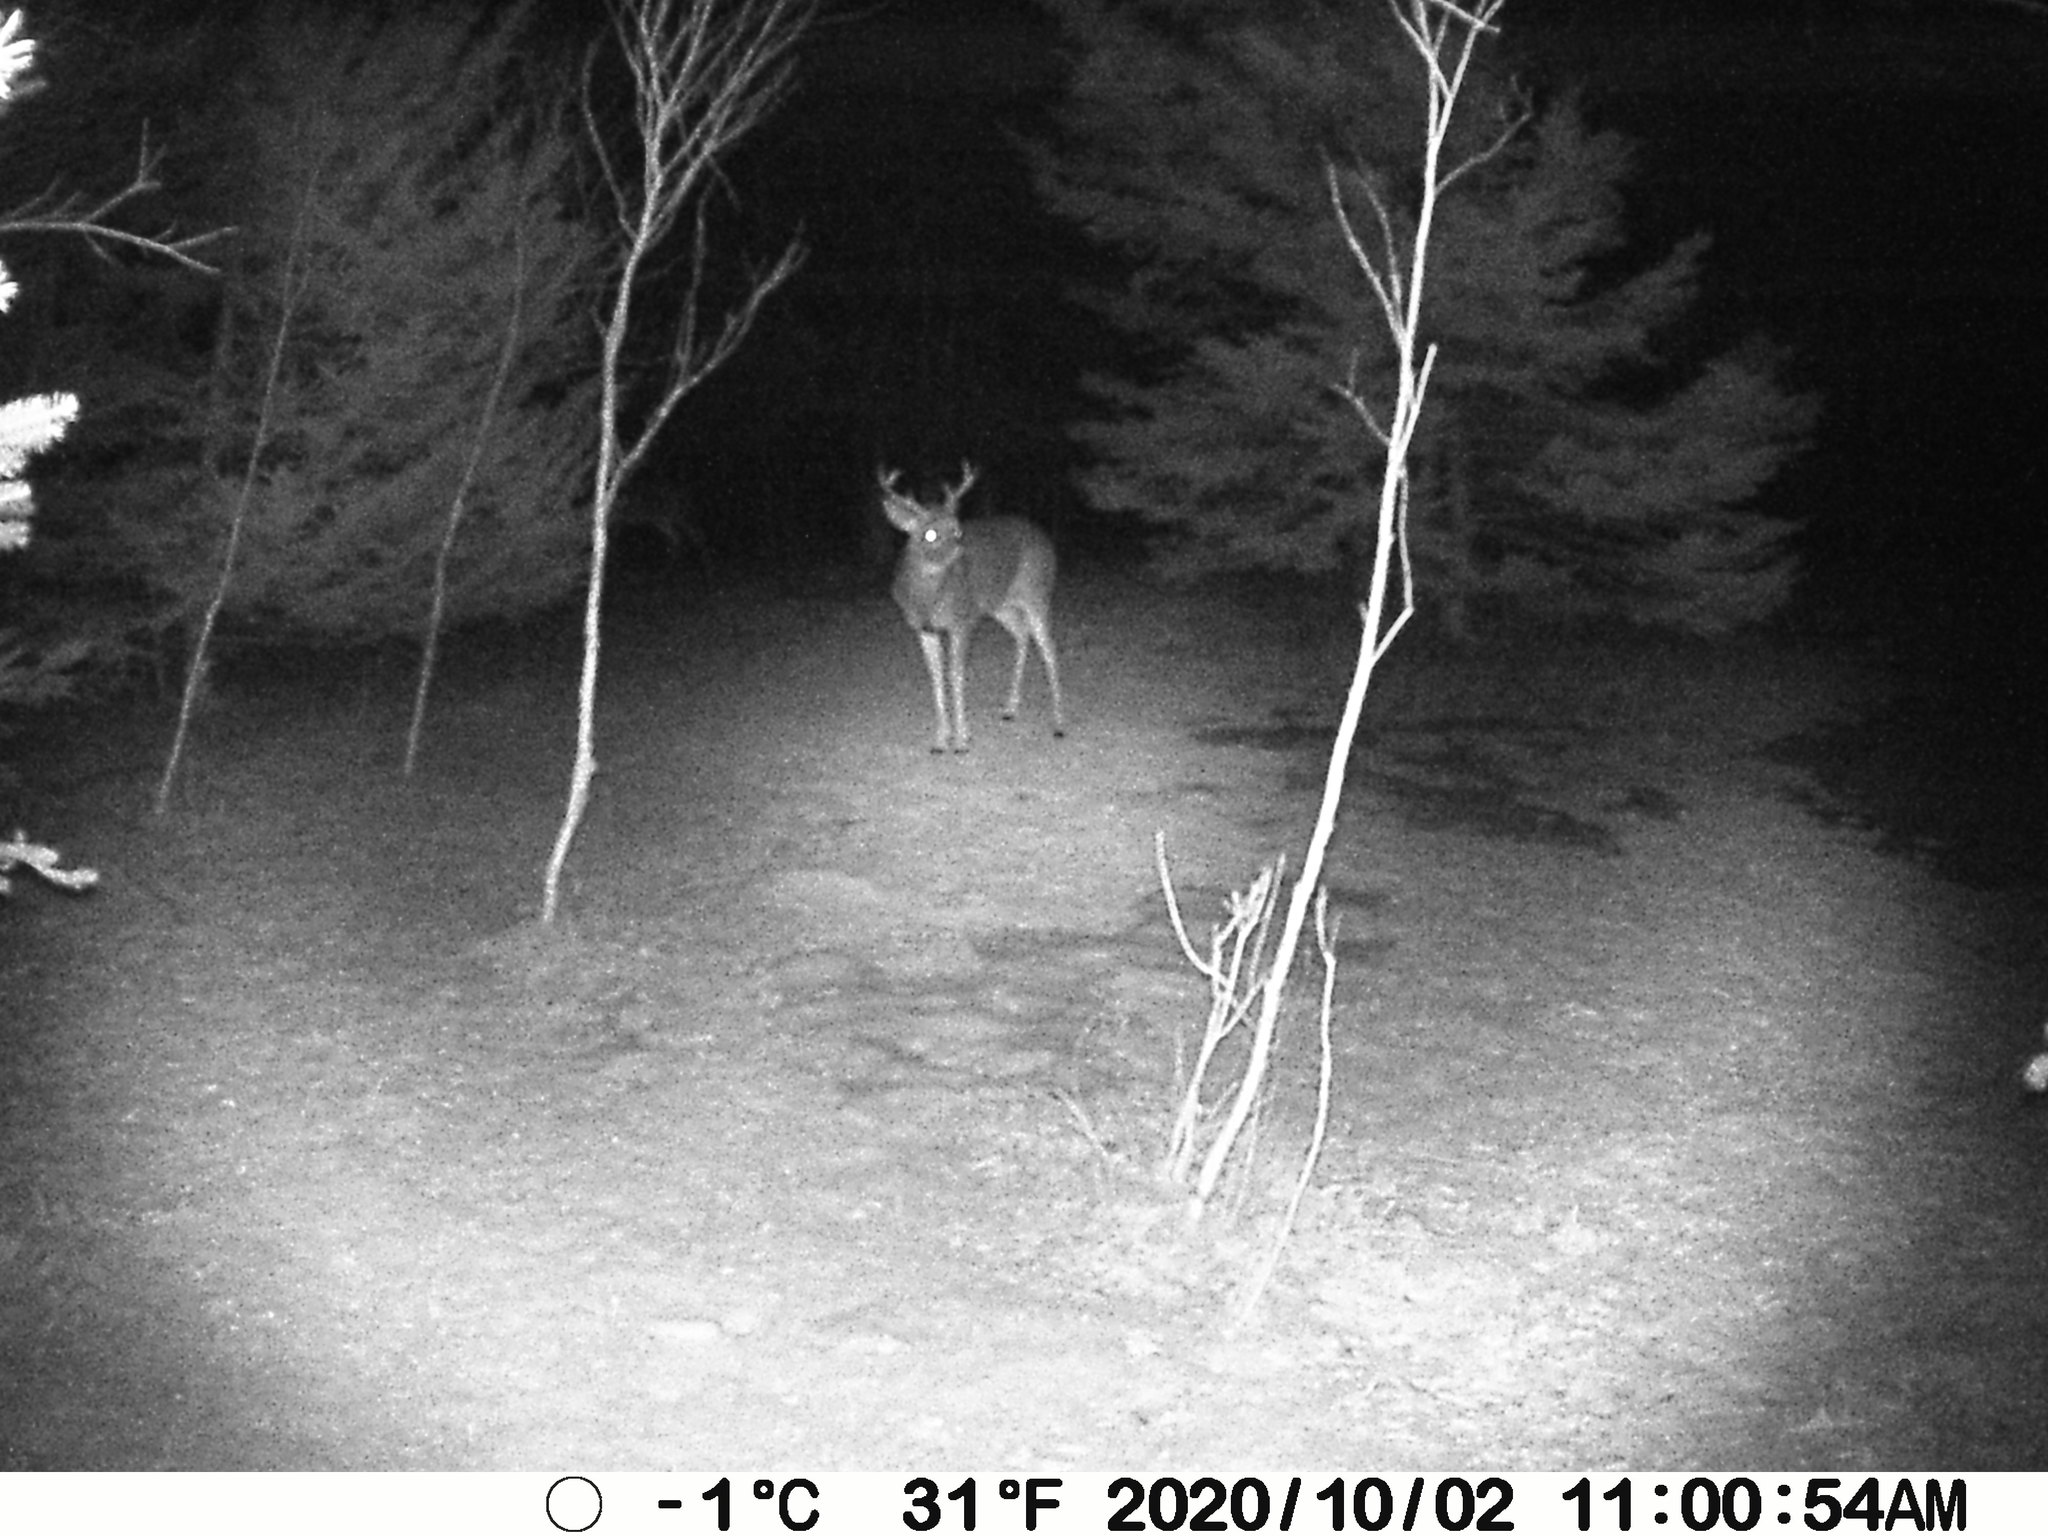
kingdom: Animalia
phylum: Chordata
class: Mammalia
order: Artiodactyla
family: Cervidae
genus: Odocoileus
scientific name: Odocoileus virginianus
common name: White-tailed deer
